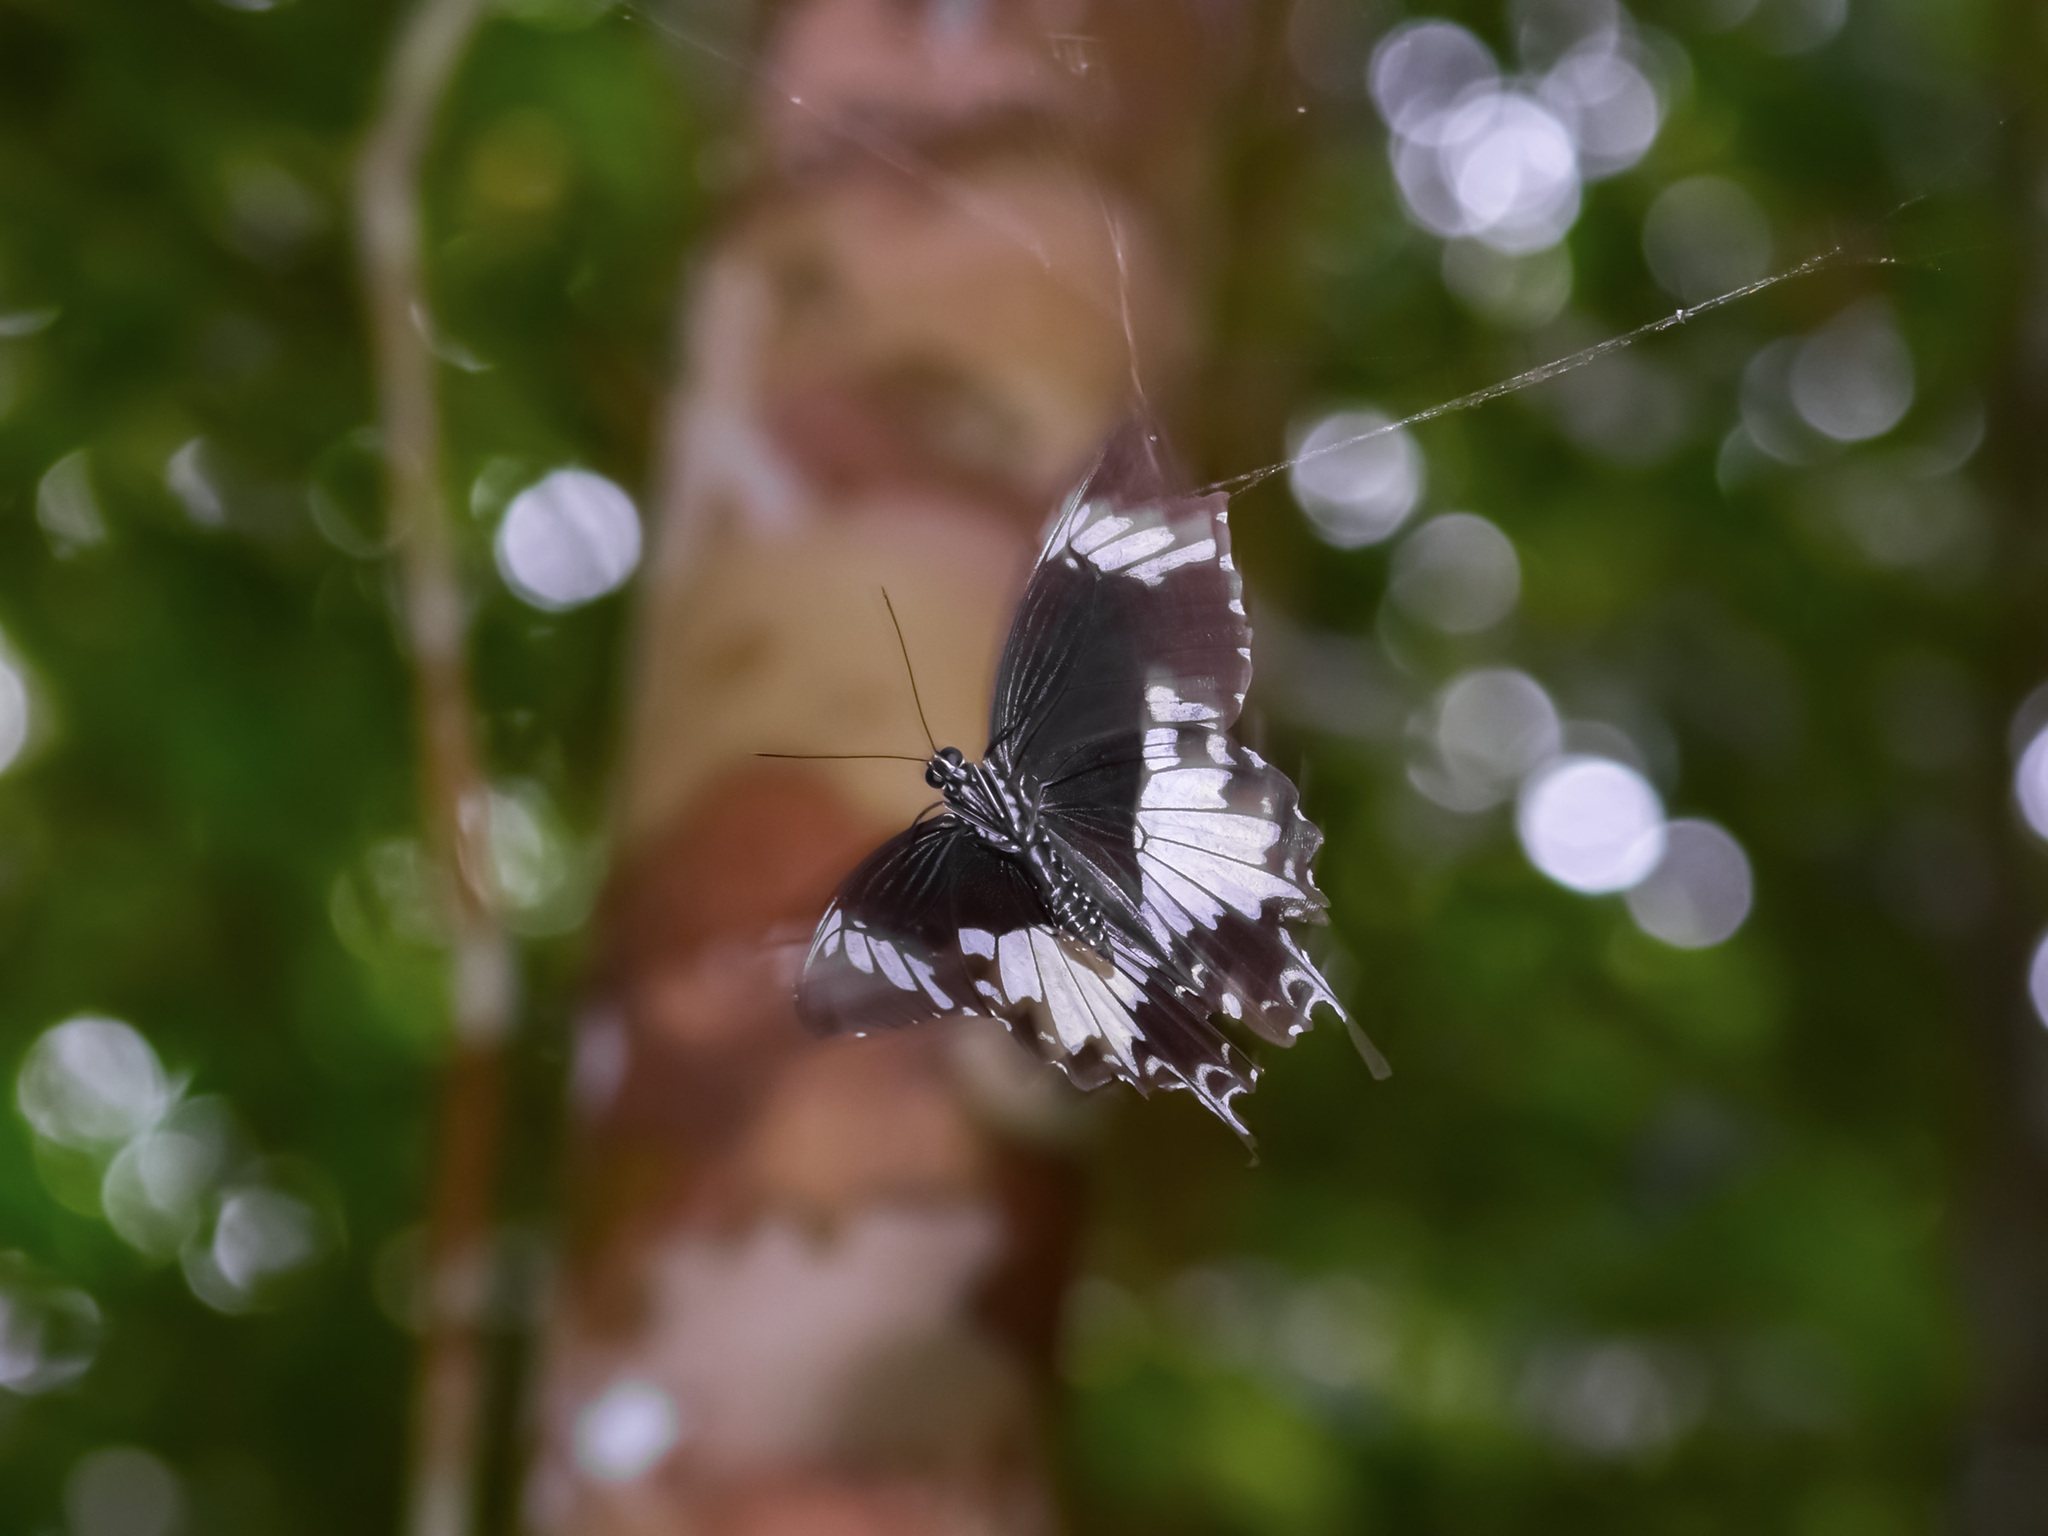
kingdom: Animalia
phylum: Arthropoda
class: Insecta
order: Lepidoptera
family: Papilionidae
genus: Papilio
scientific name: Papilio nephelus
